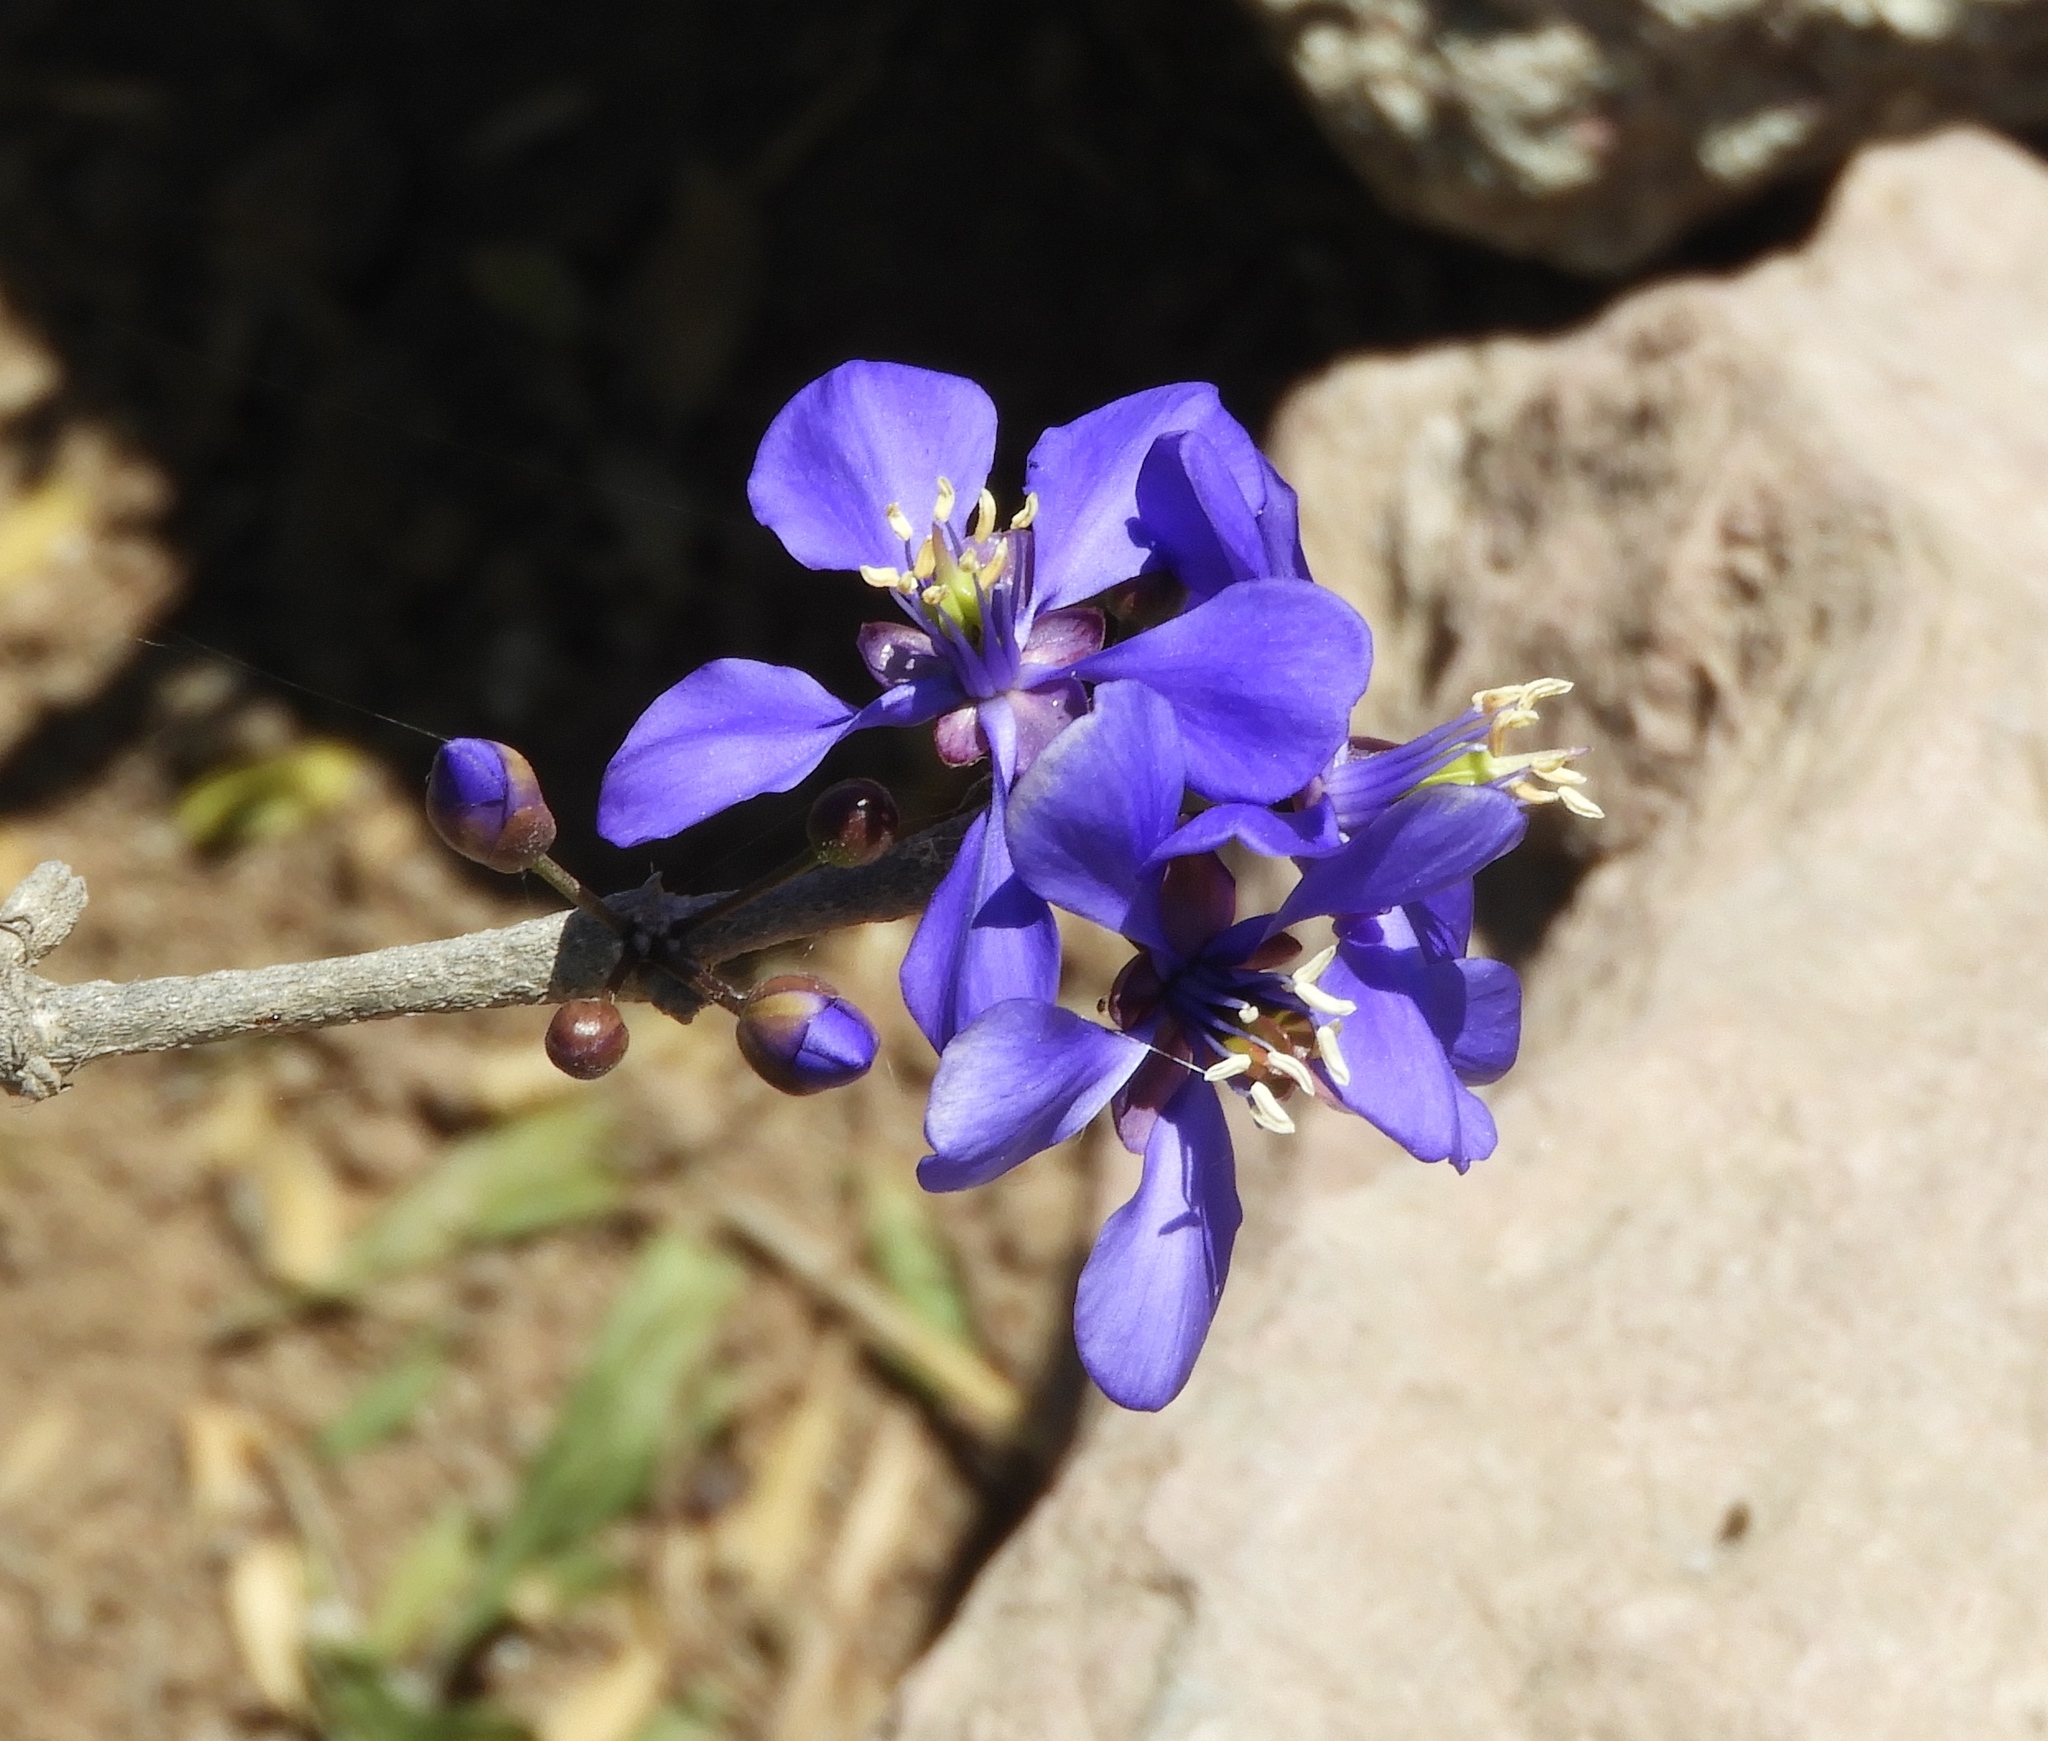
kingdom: Plantae
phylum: Tracheophyta
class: Magnoliopsida
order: Zygophyllales
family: Zygophyllaceae
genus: Guaiacum
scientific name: Guaiacum coulteri
